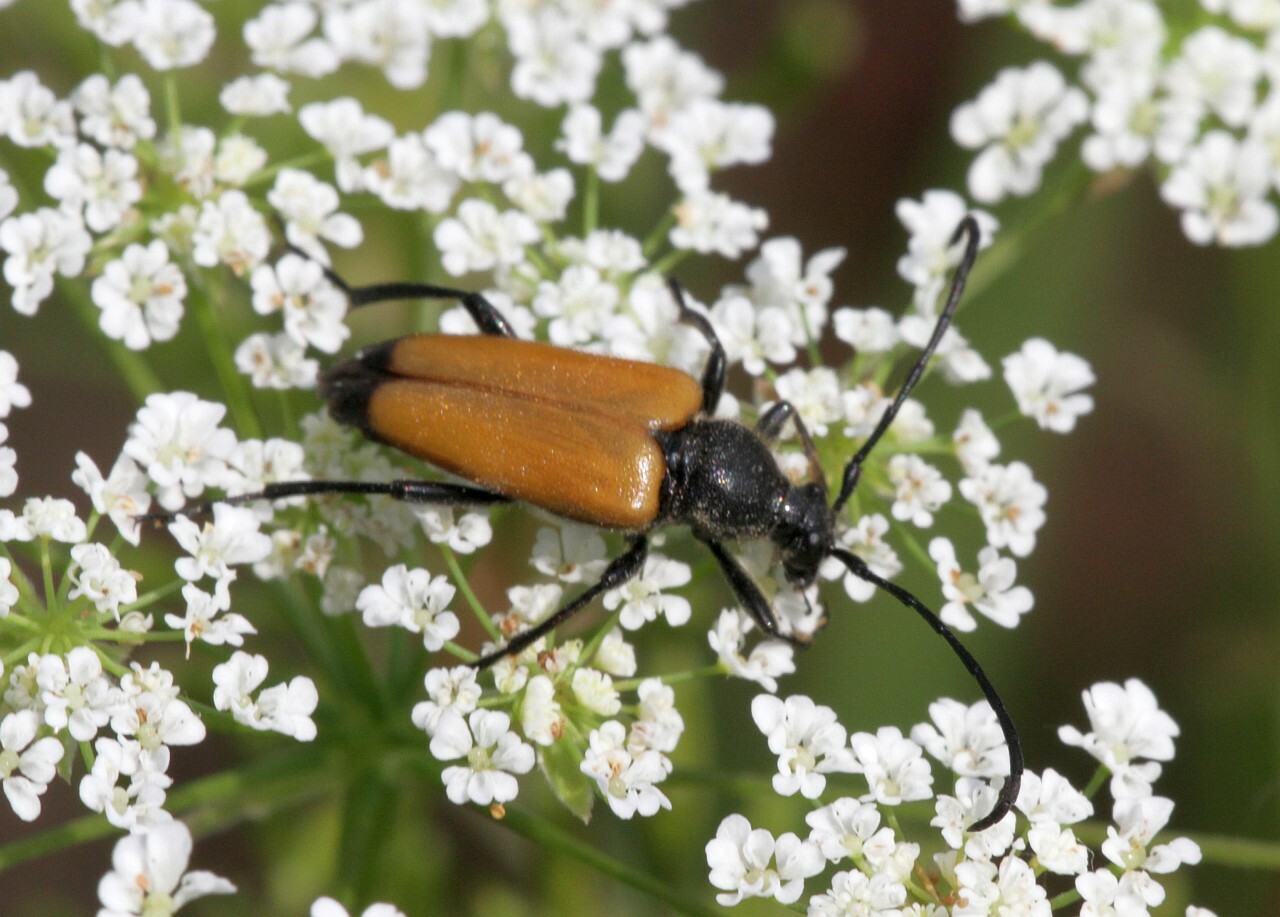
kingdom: Animalia
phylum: Arthropoda
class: Insecta
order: Coleoptera
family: Cerambycidae
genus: Paracorymbia
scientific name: Paracorymbia fulva
